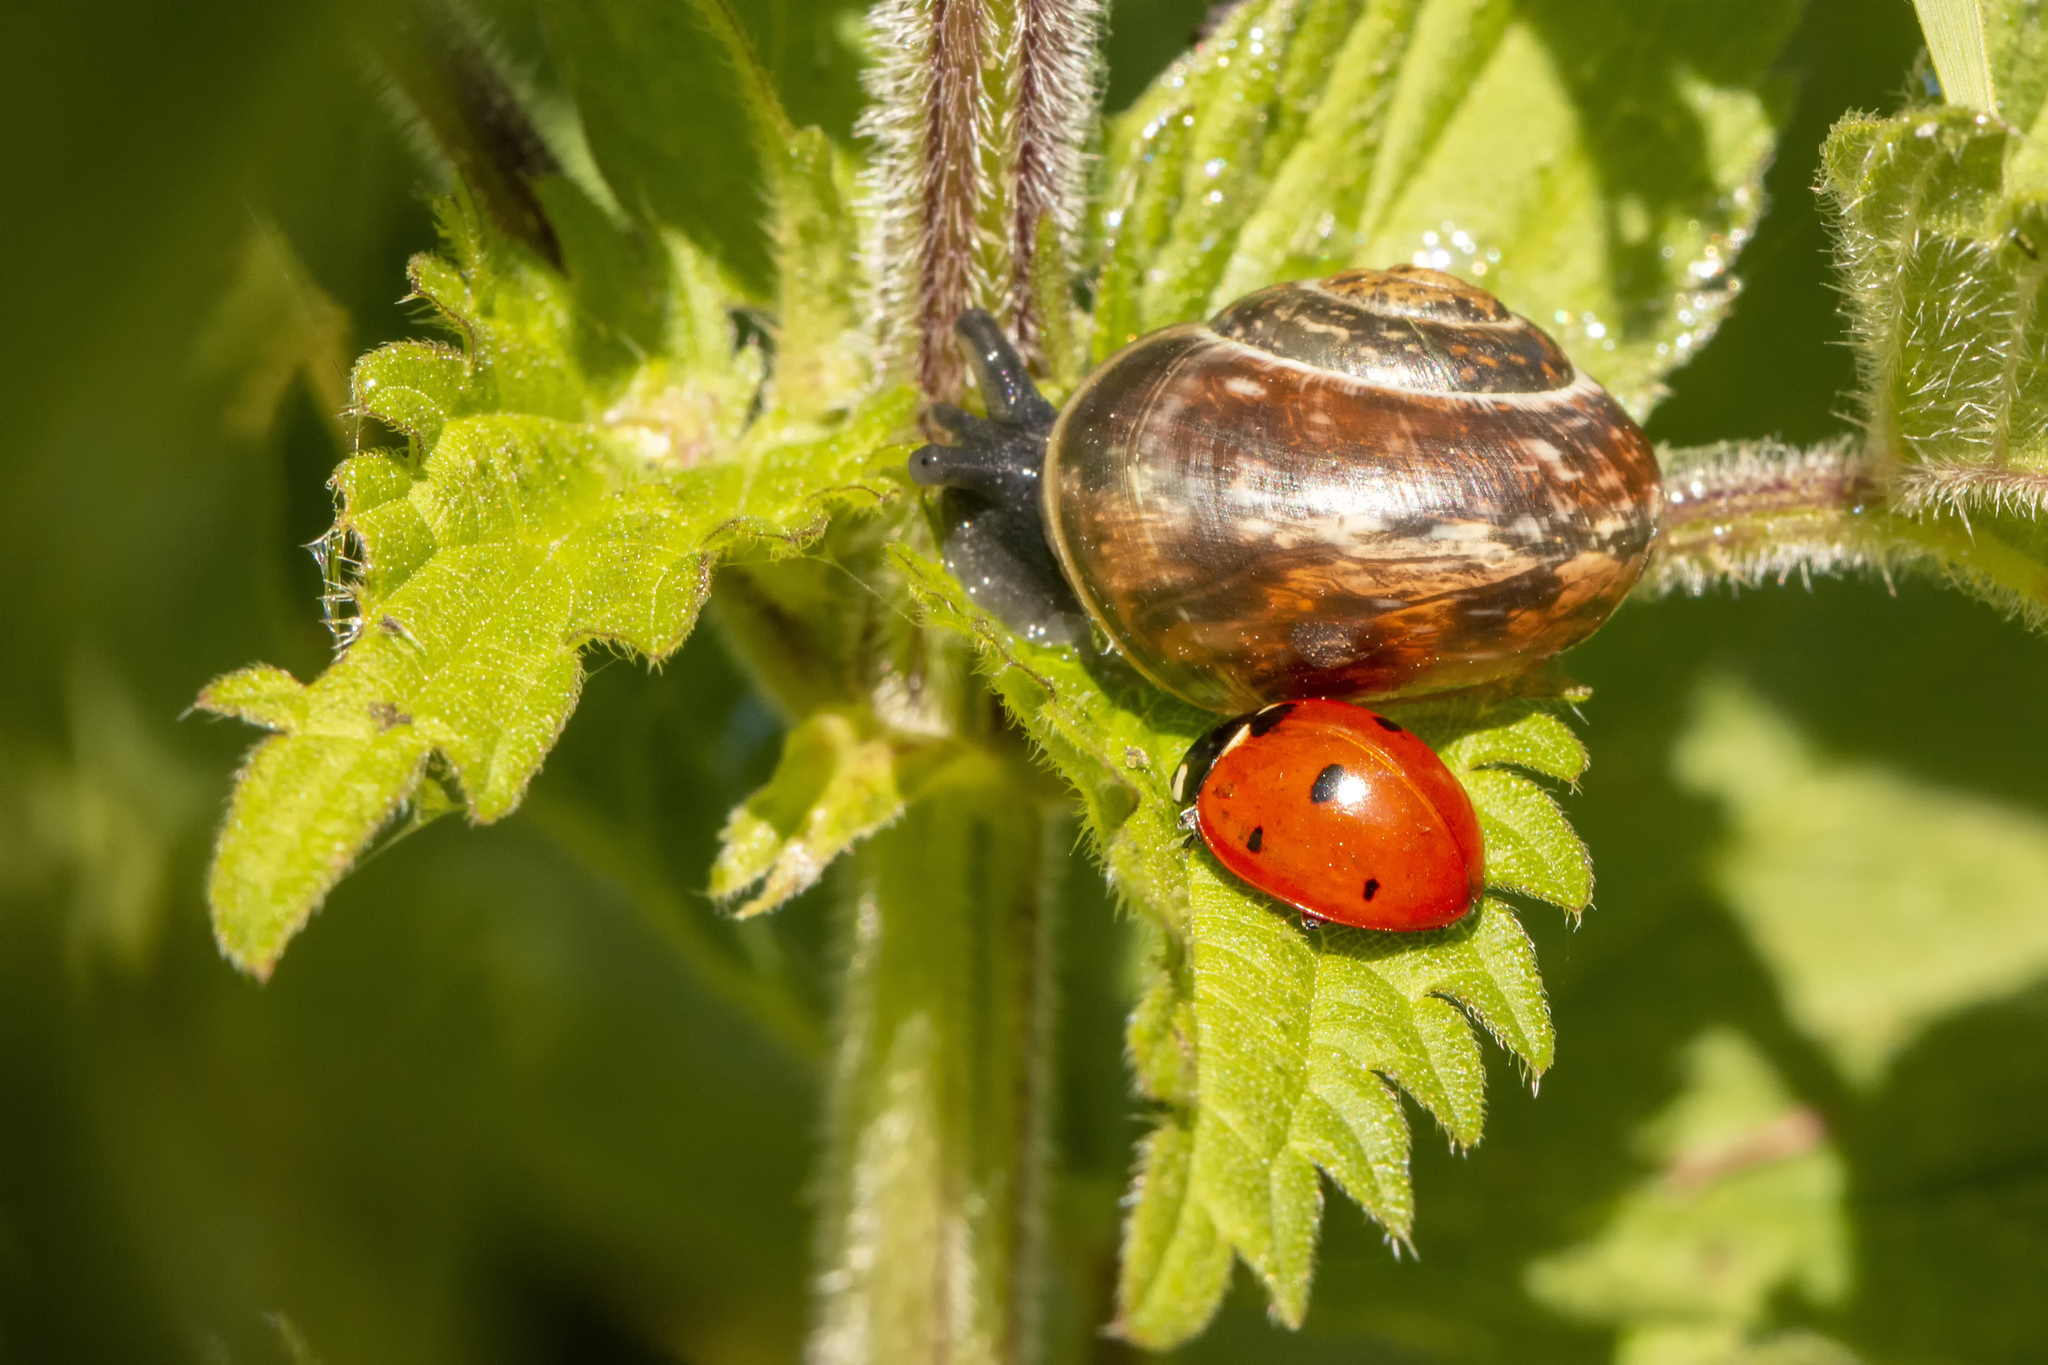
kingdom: Animalia
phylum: Arthropoda
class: Insecta
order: Coleoptera
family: Coccinellidae
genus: Coccinella
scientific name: Coccinella septempunctata
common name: Sevenspotted lady beetle
